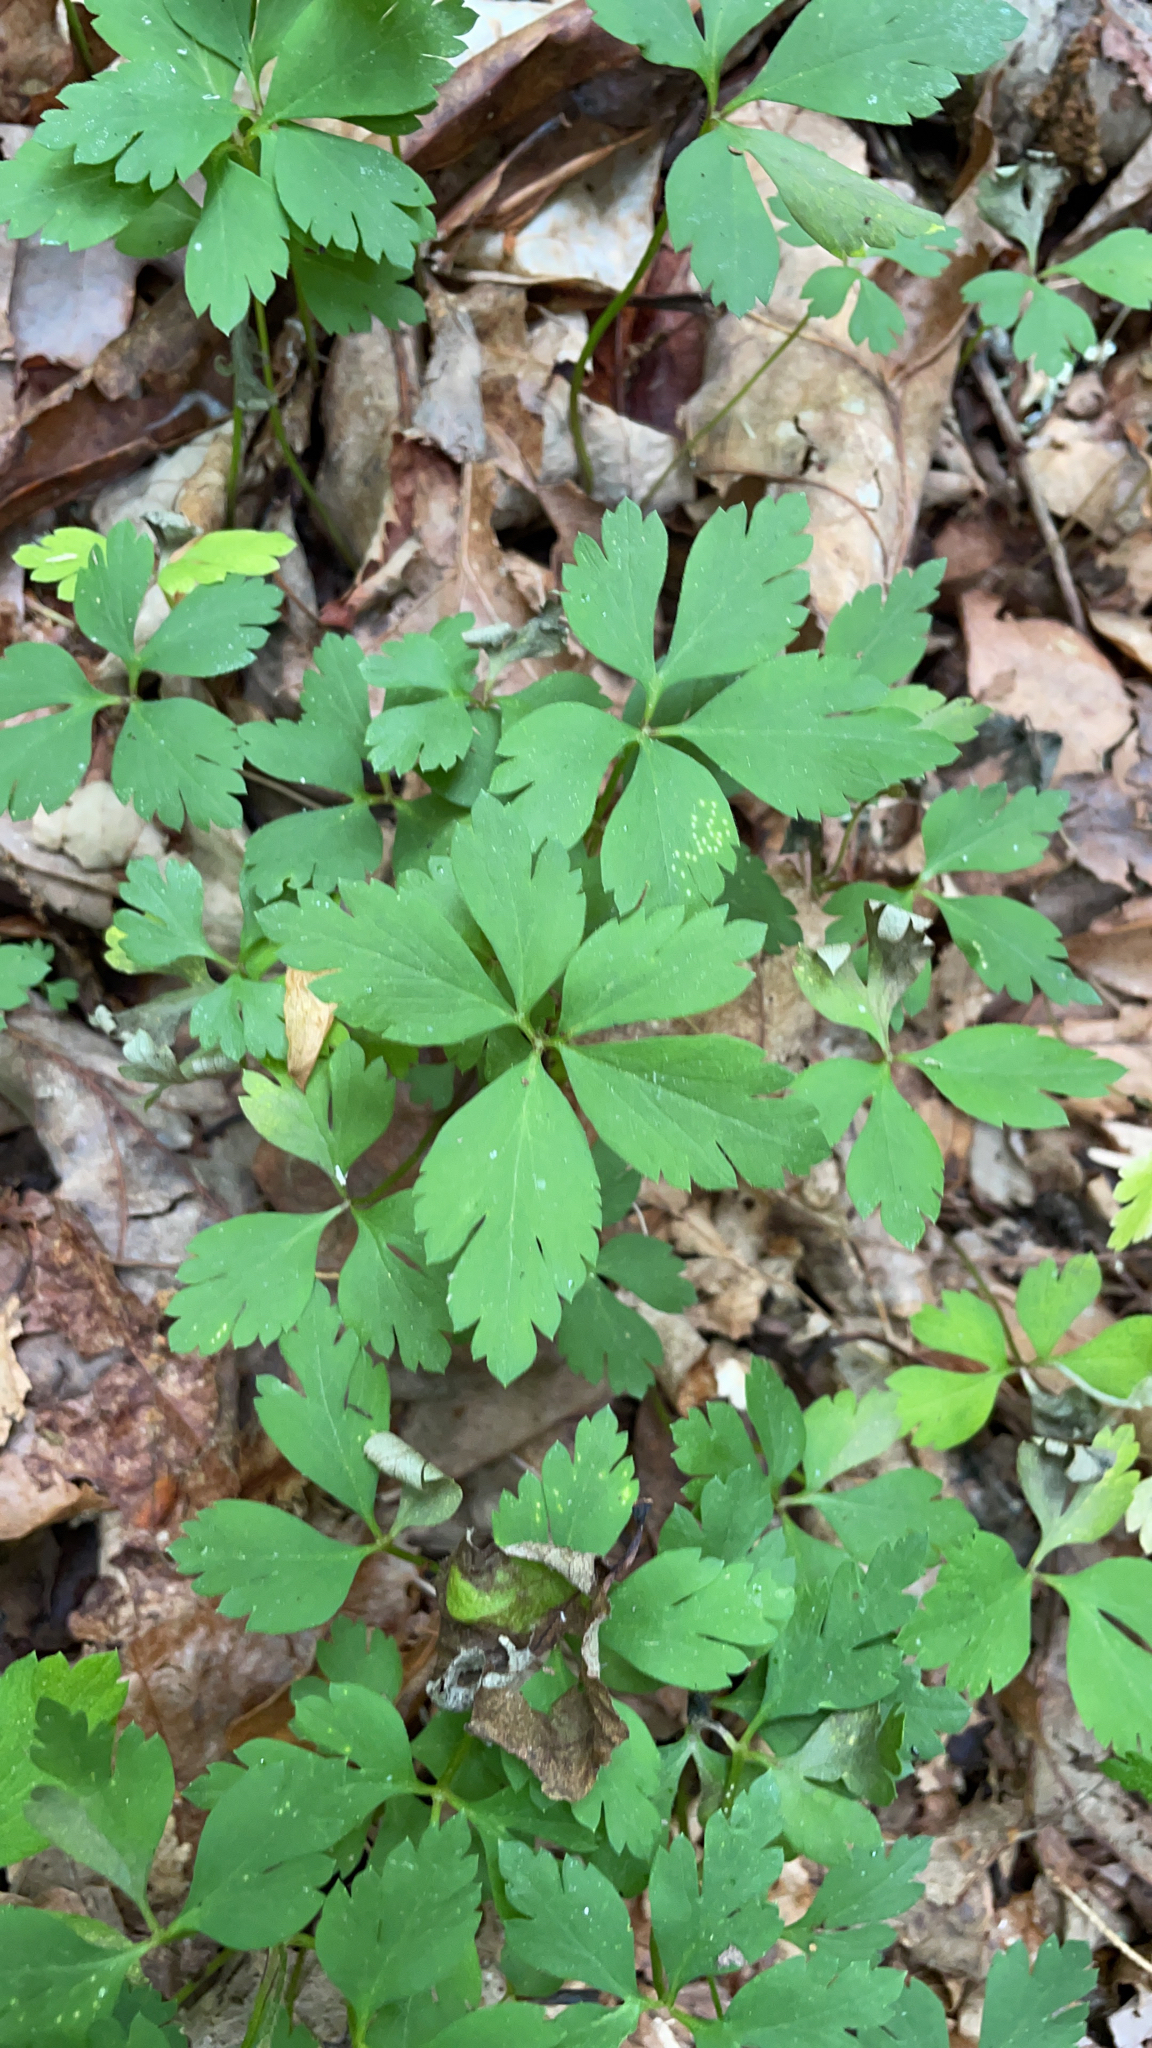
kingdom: Plantae
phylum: Tracheophyta
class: Magnoliopsida
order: Ranunculales
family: Ranunculaceae
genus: Anemone
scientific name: Anemone quinquefolia
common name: Wood anemone
